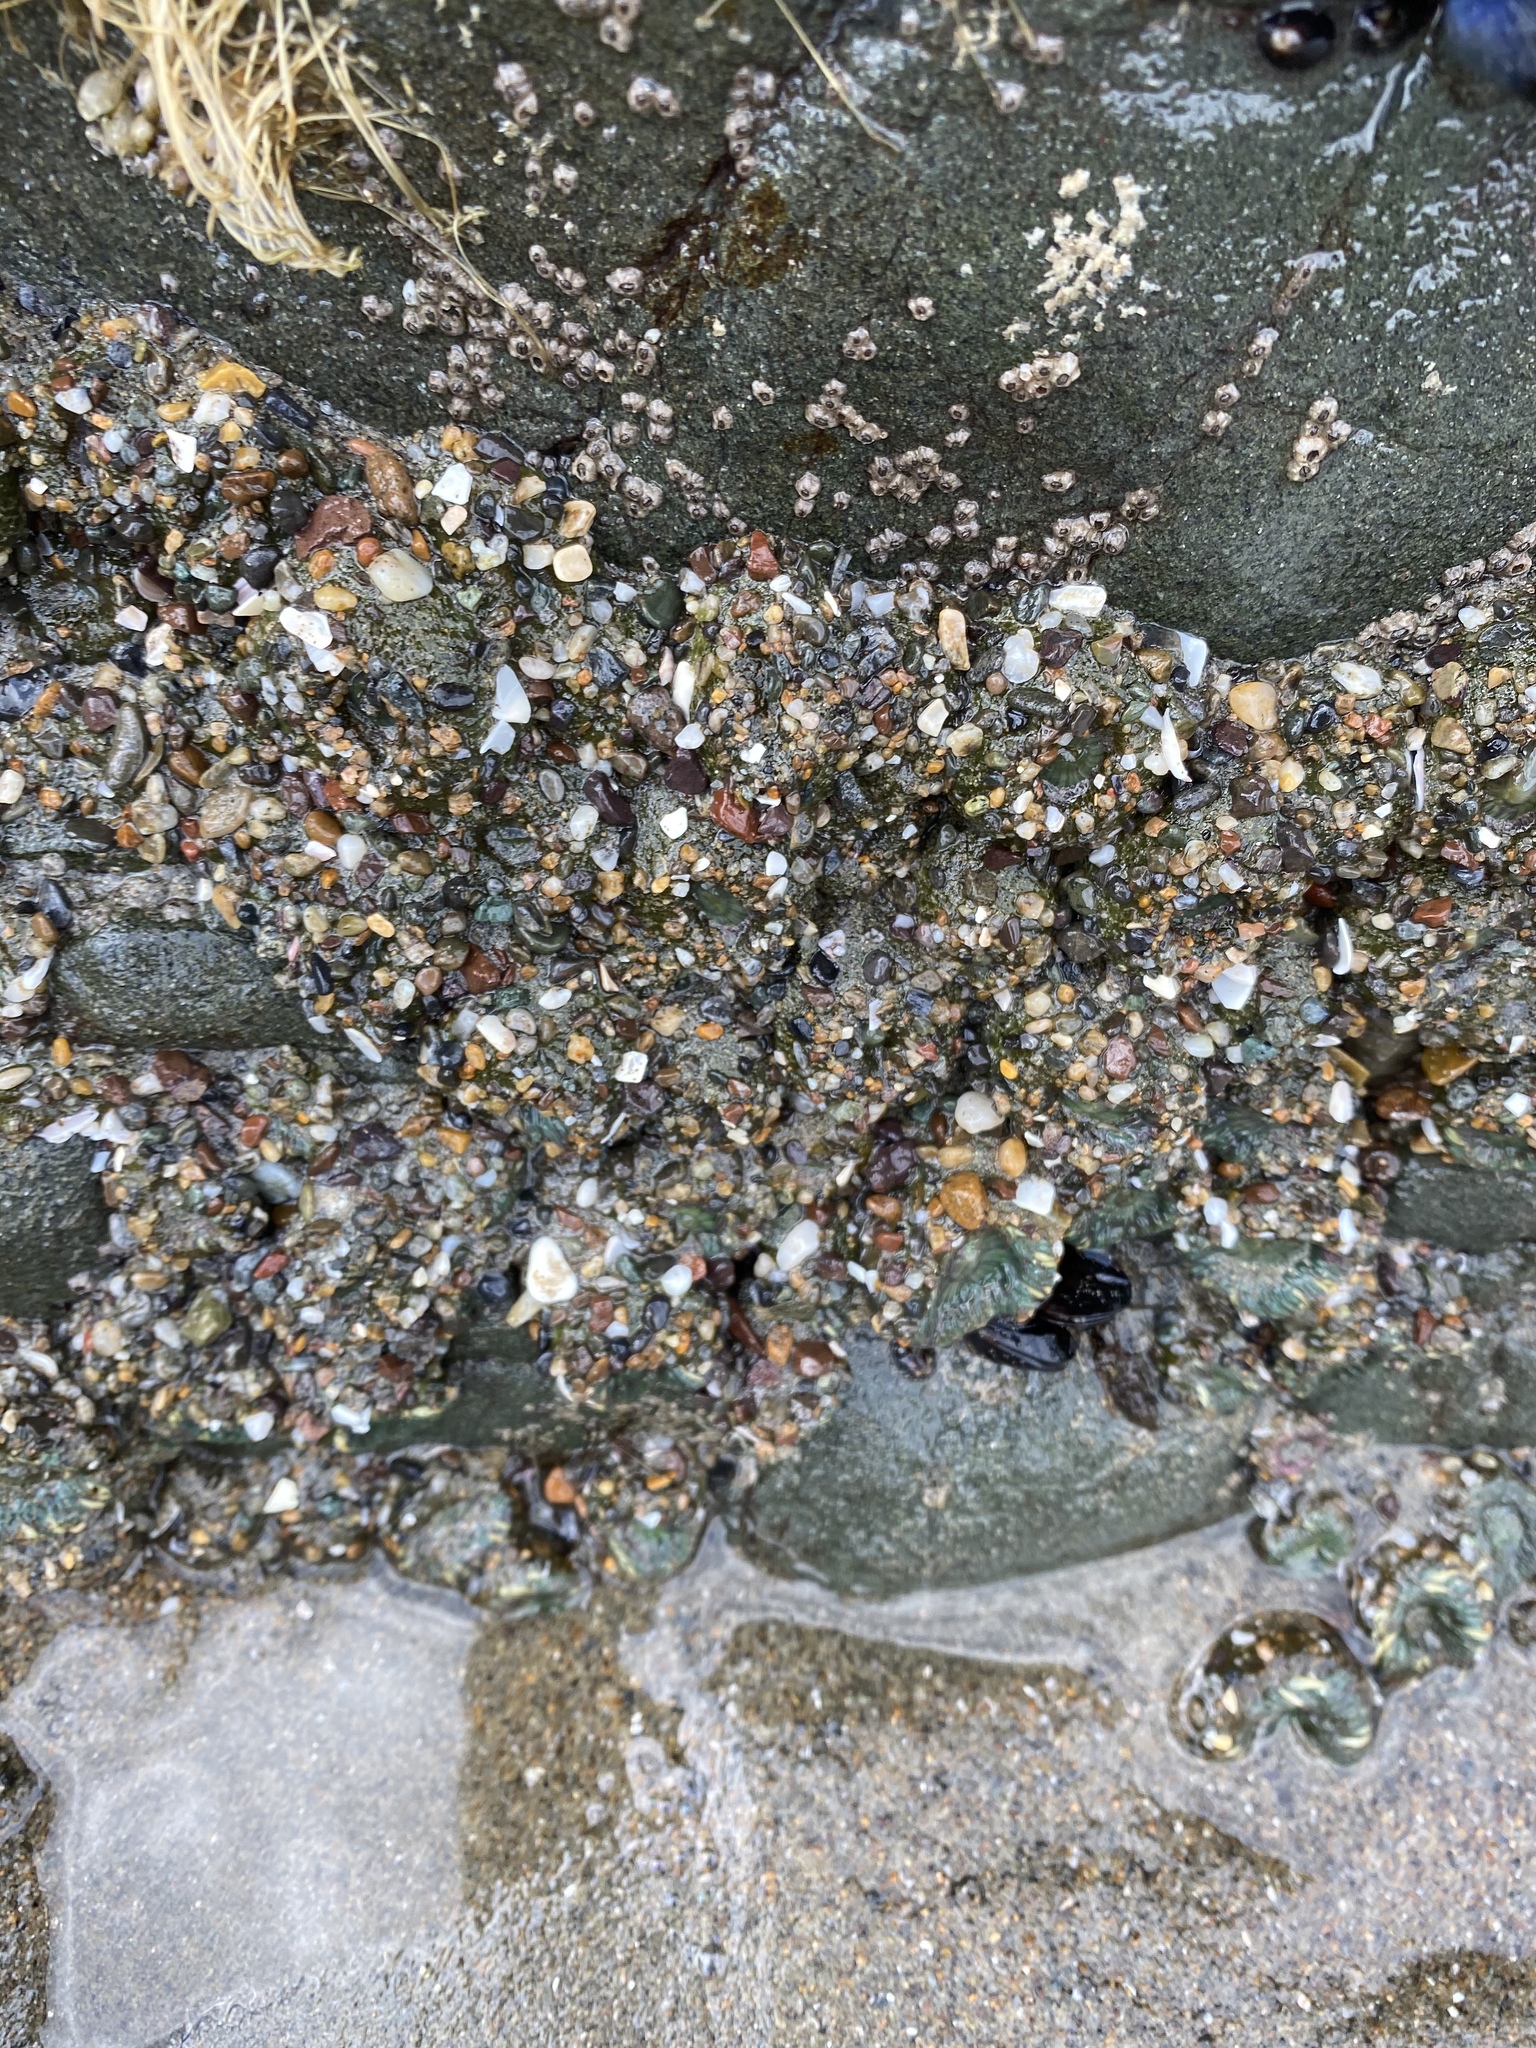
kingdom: Animalia
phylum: Cnidaria
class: Anthozoa
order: Actiniaria
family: Actiniidae
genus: Anthopleura
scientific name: Anthopleura elegantissima
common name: Clonal anemone
